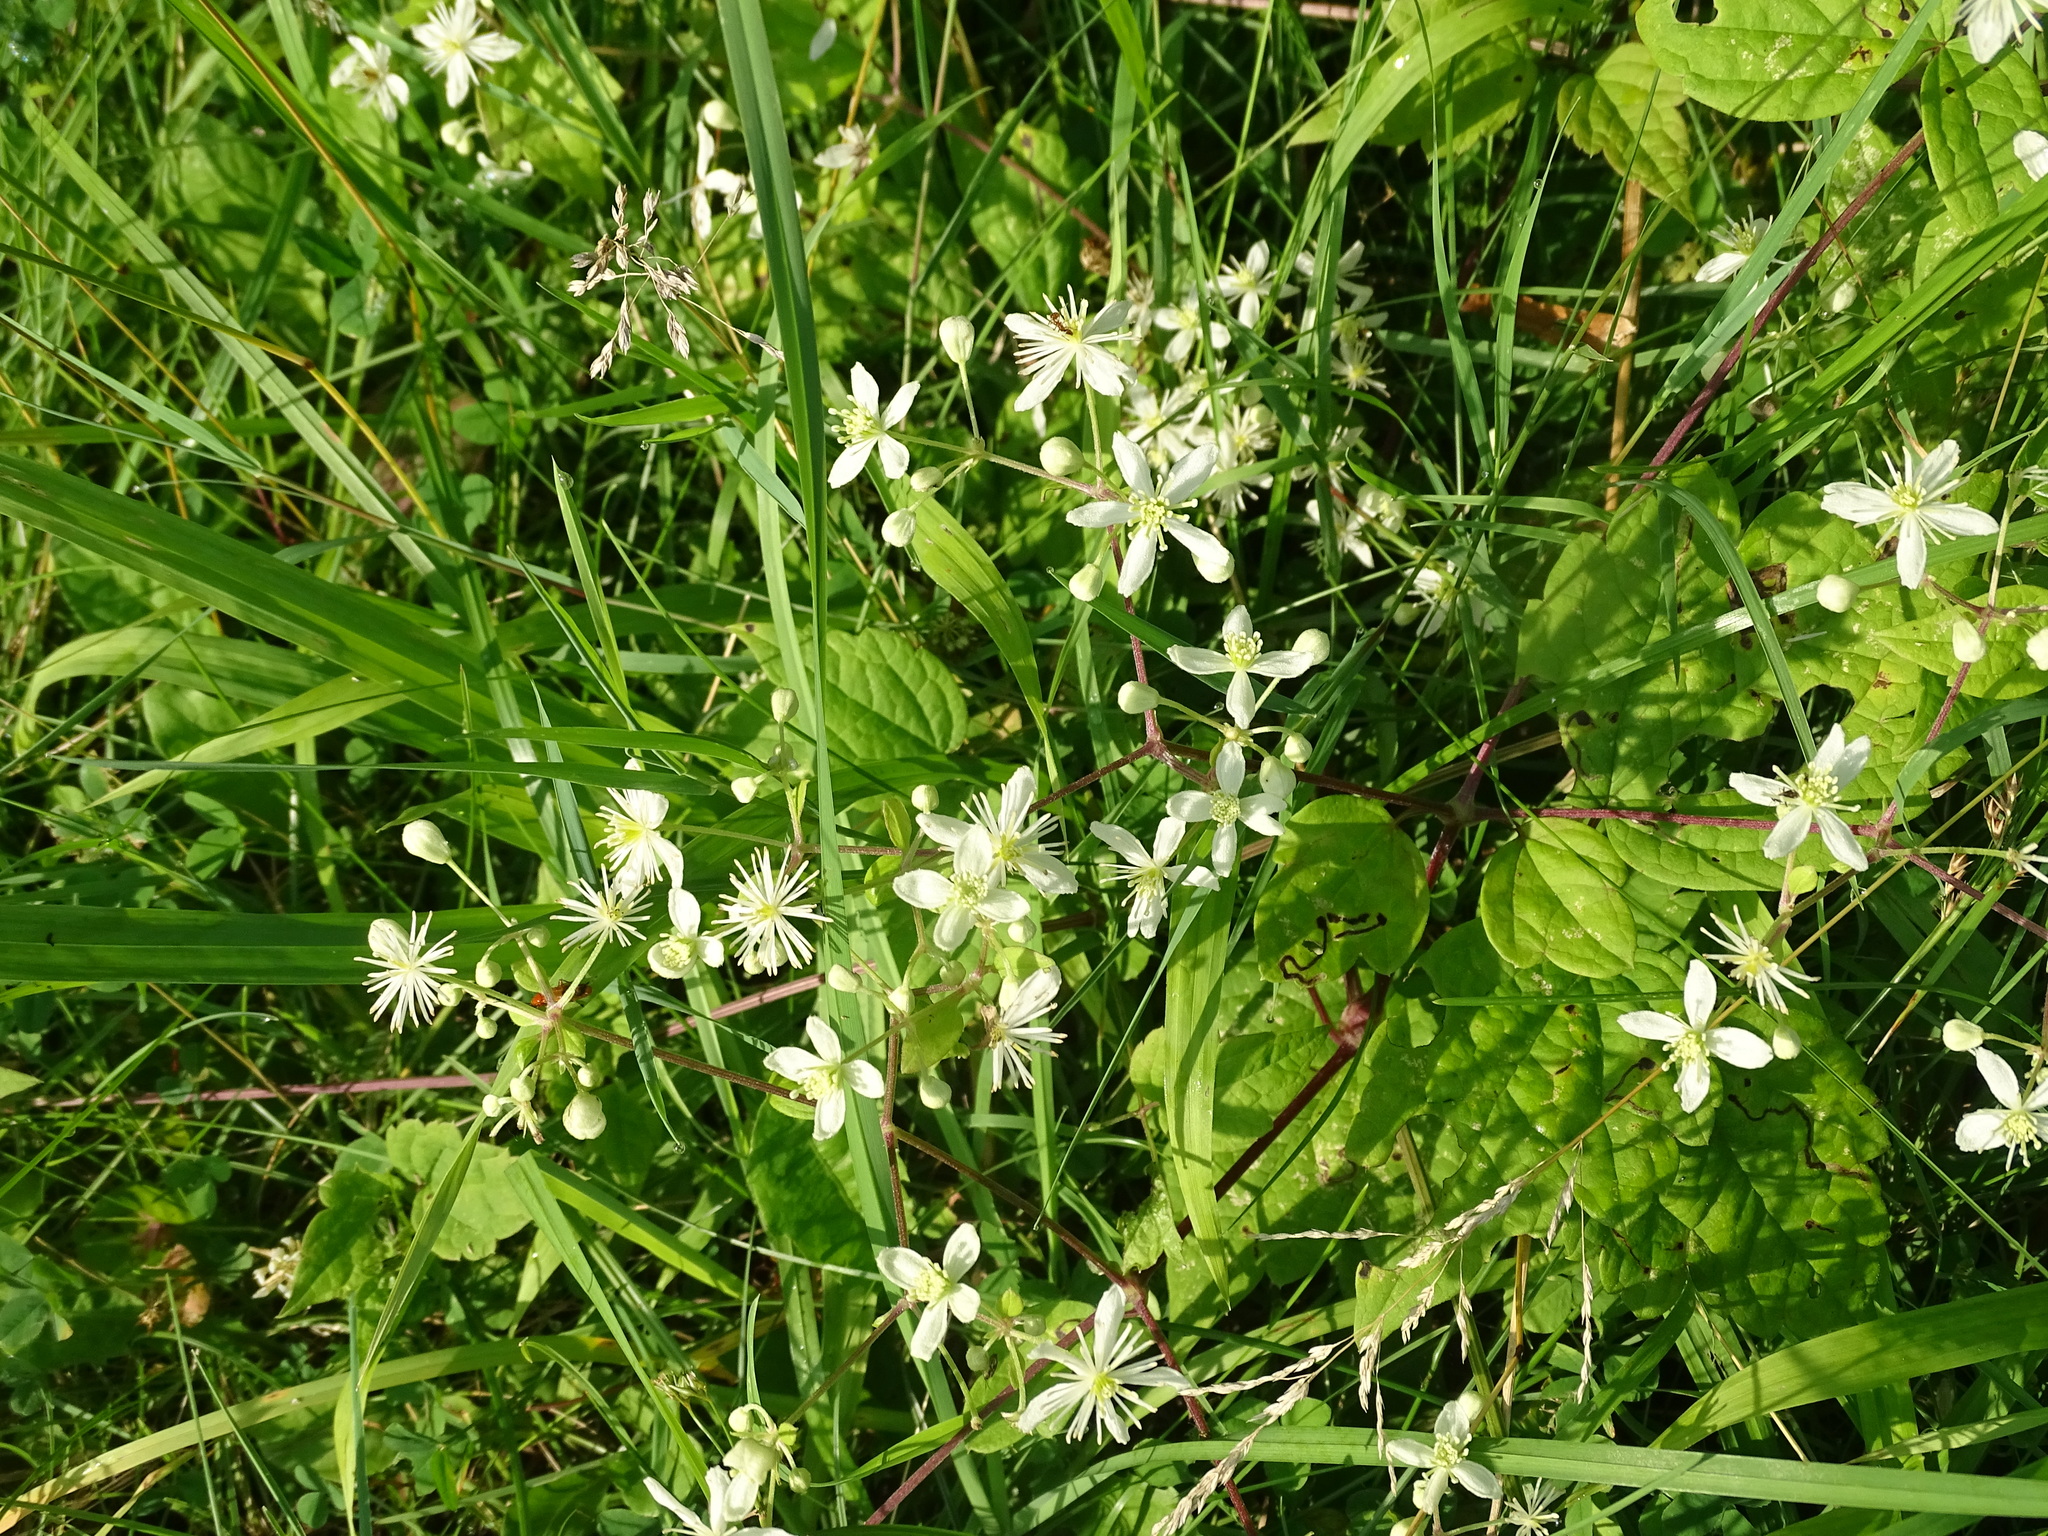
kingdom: Plantae
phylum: Tracheophyta
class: Magnoliopsida
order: Ranunculales
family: Ranunculaceae
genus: Clematis
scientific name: Clematis virginiana
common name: Virgin's-bower
